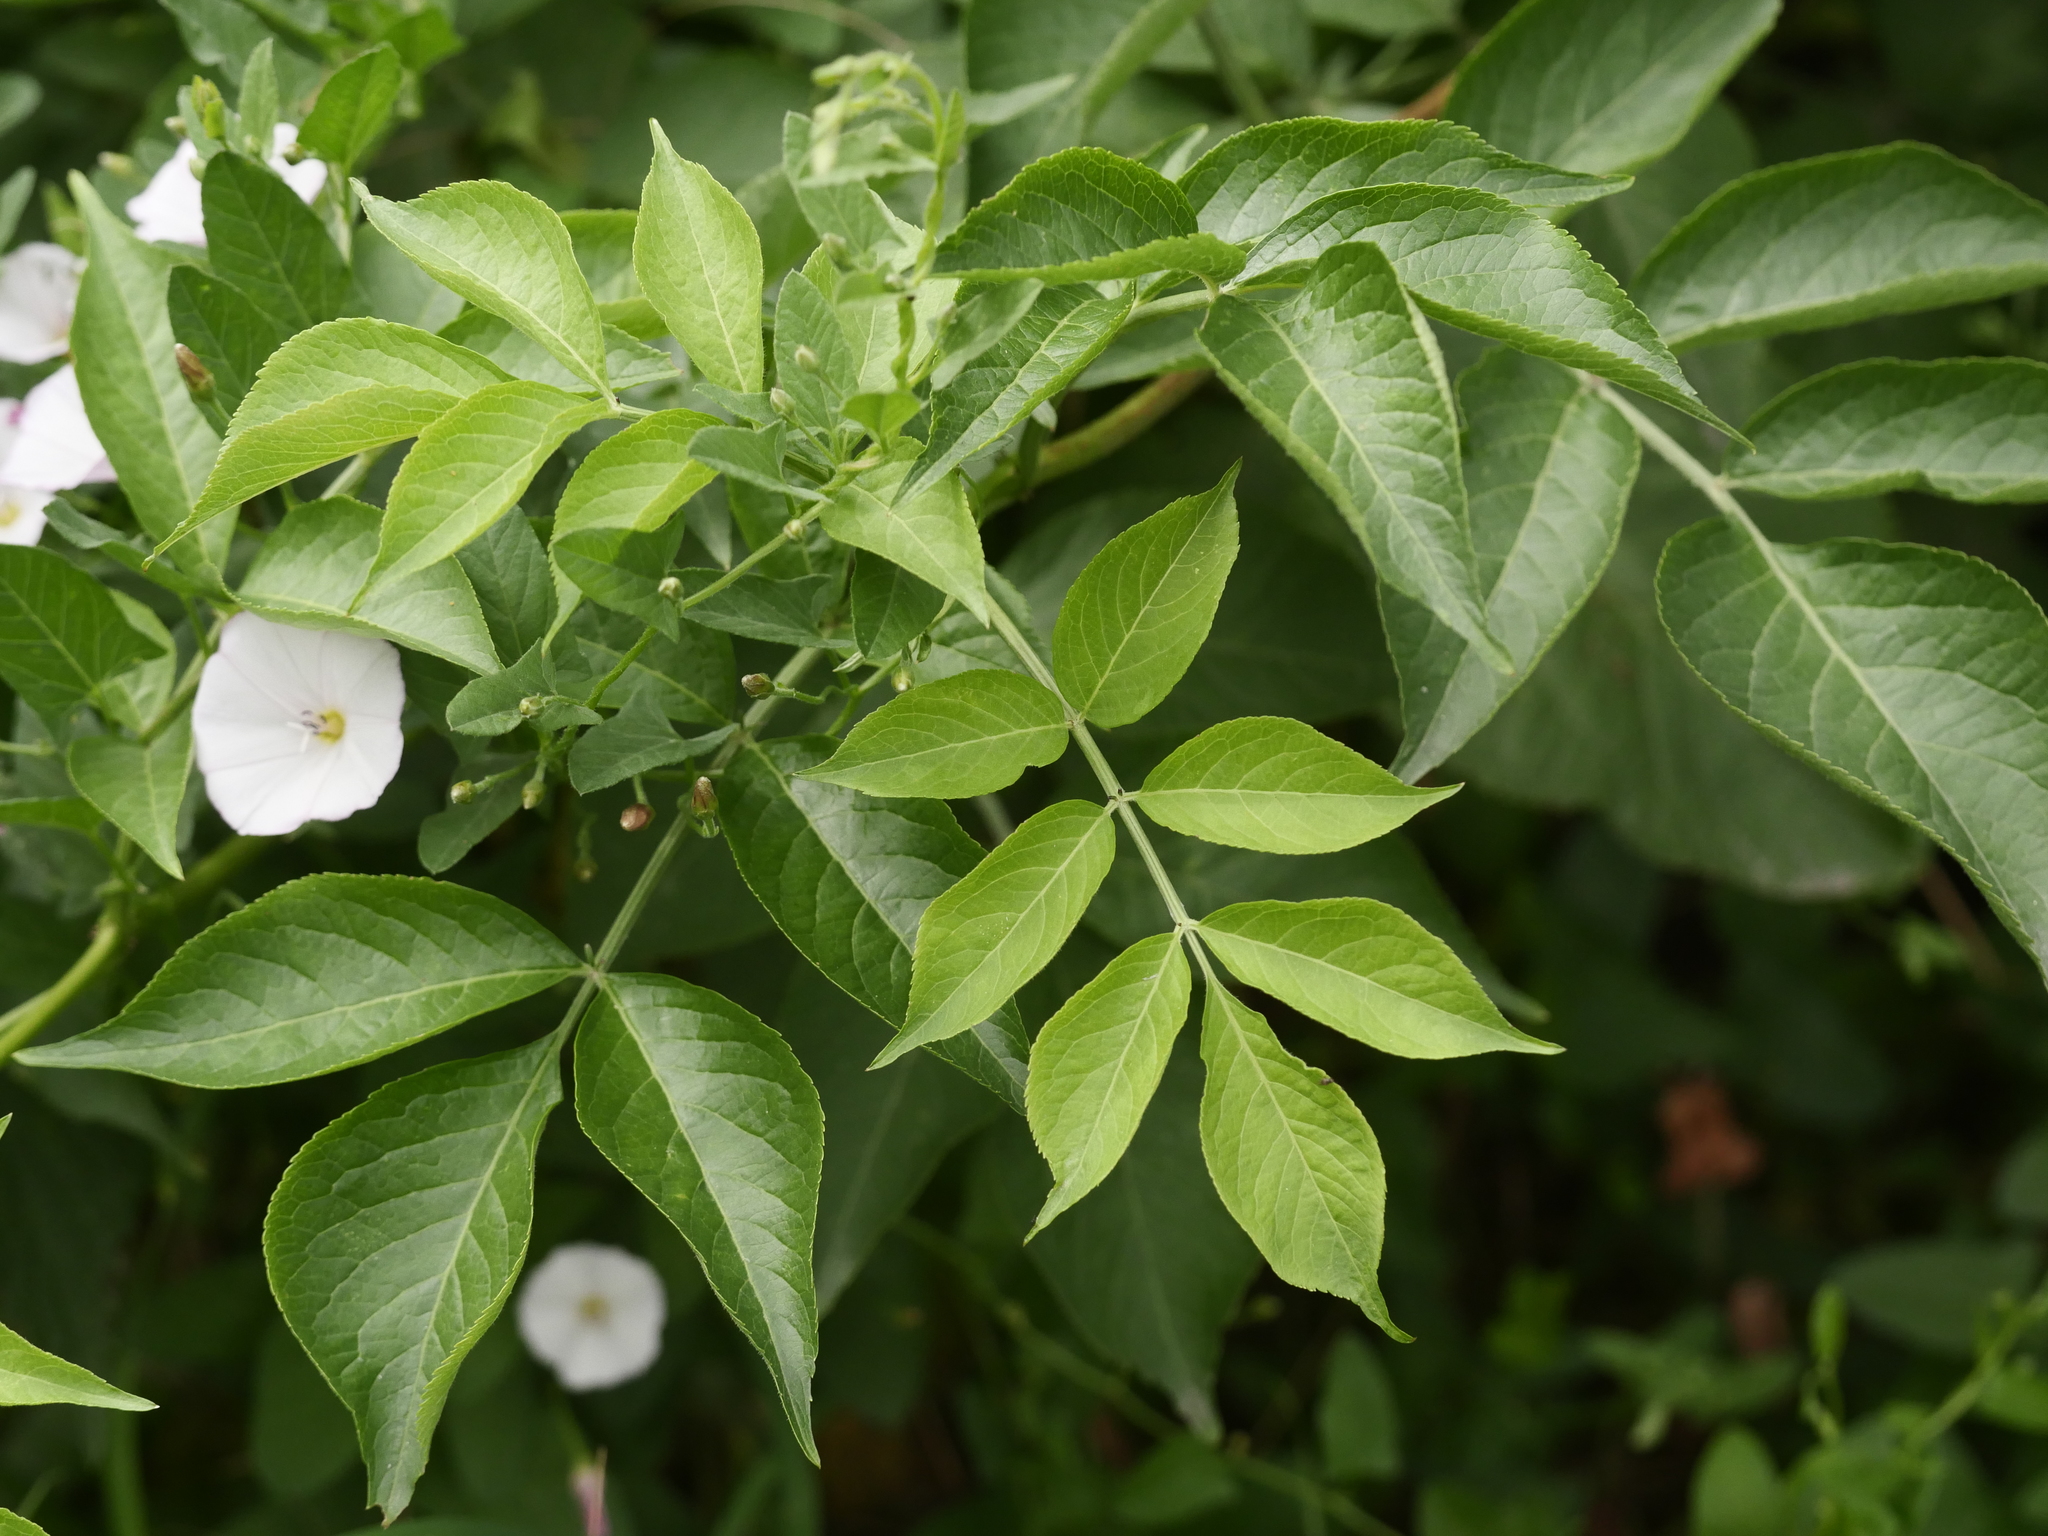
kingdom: Plantae
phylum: Tracheophyta
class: Magnoliopsida
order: Dipsacales
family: Viburnaceae
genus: Sambucus
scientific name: Sambucus nigra
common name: Elder
